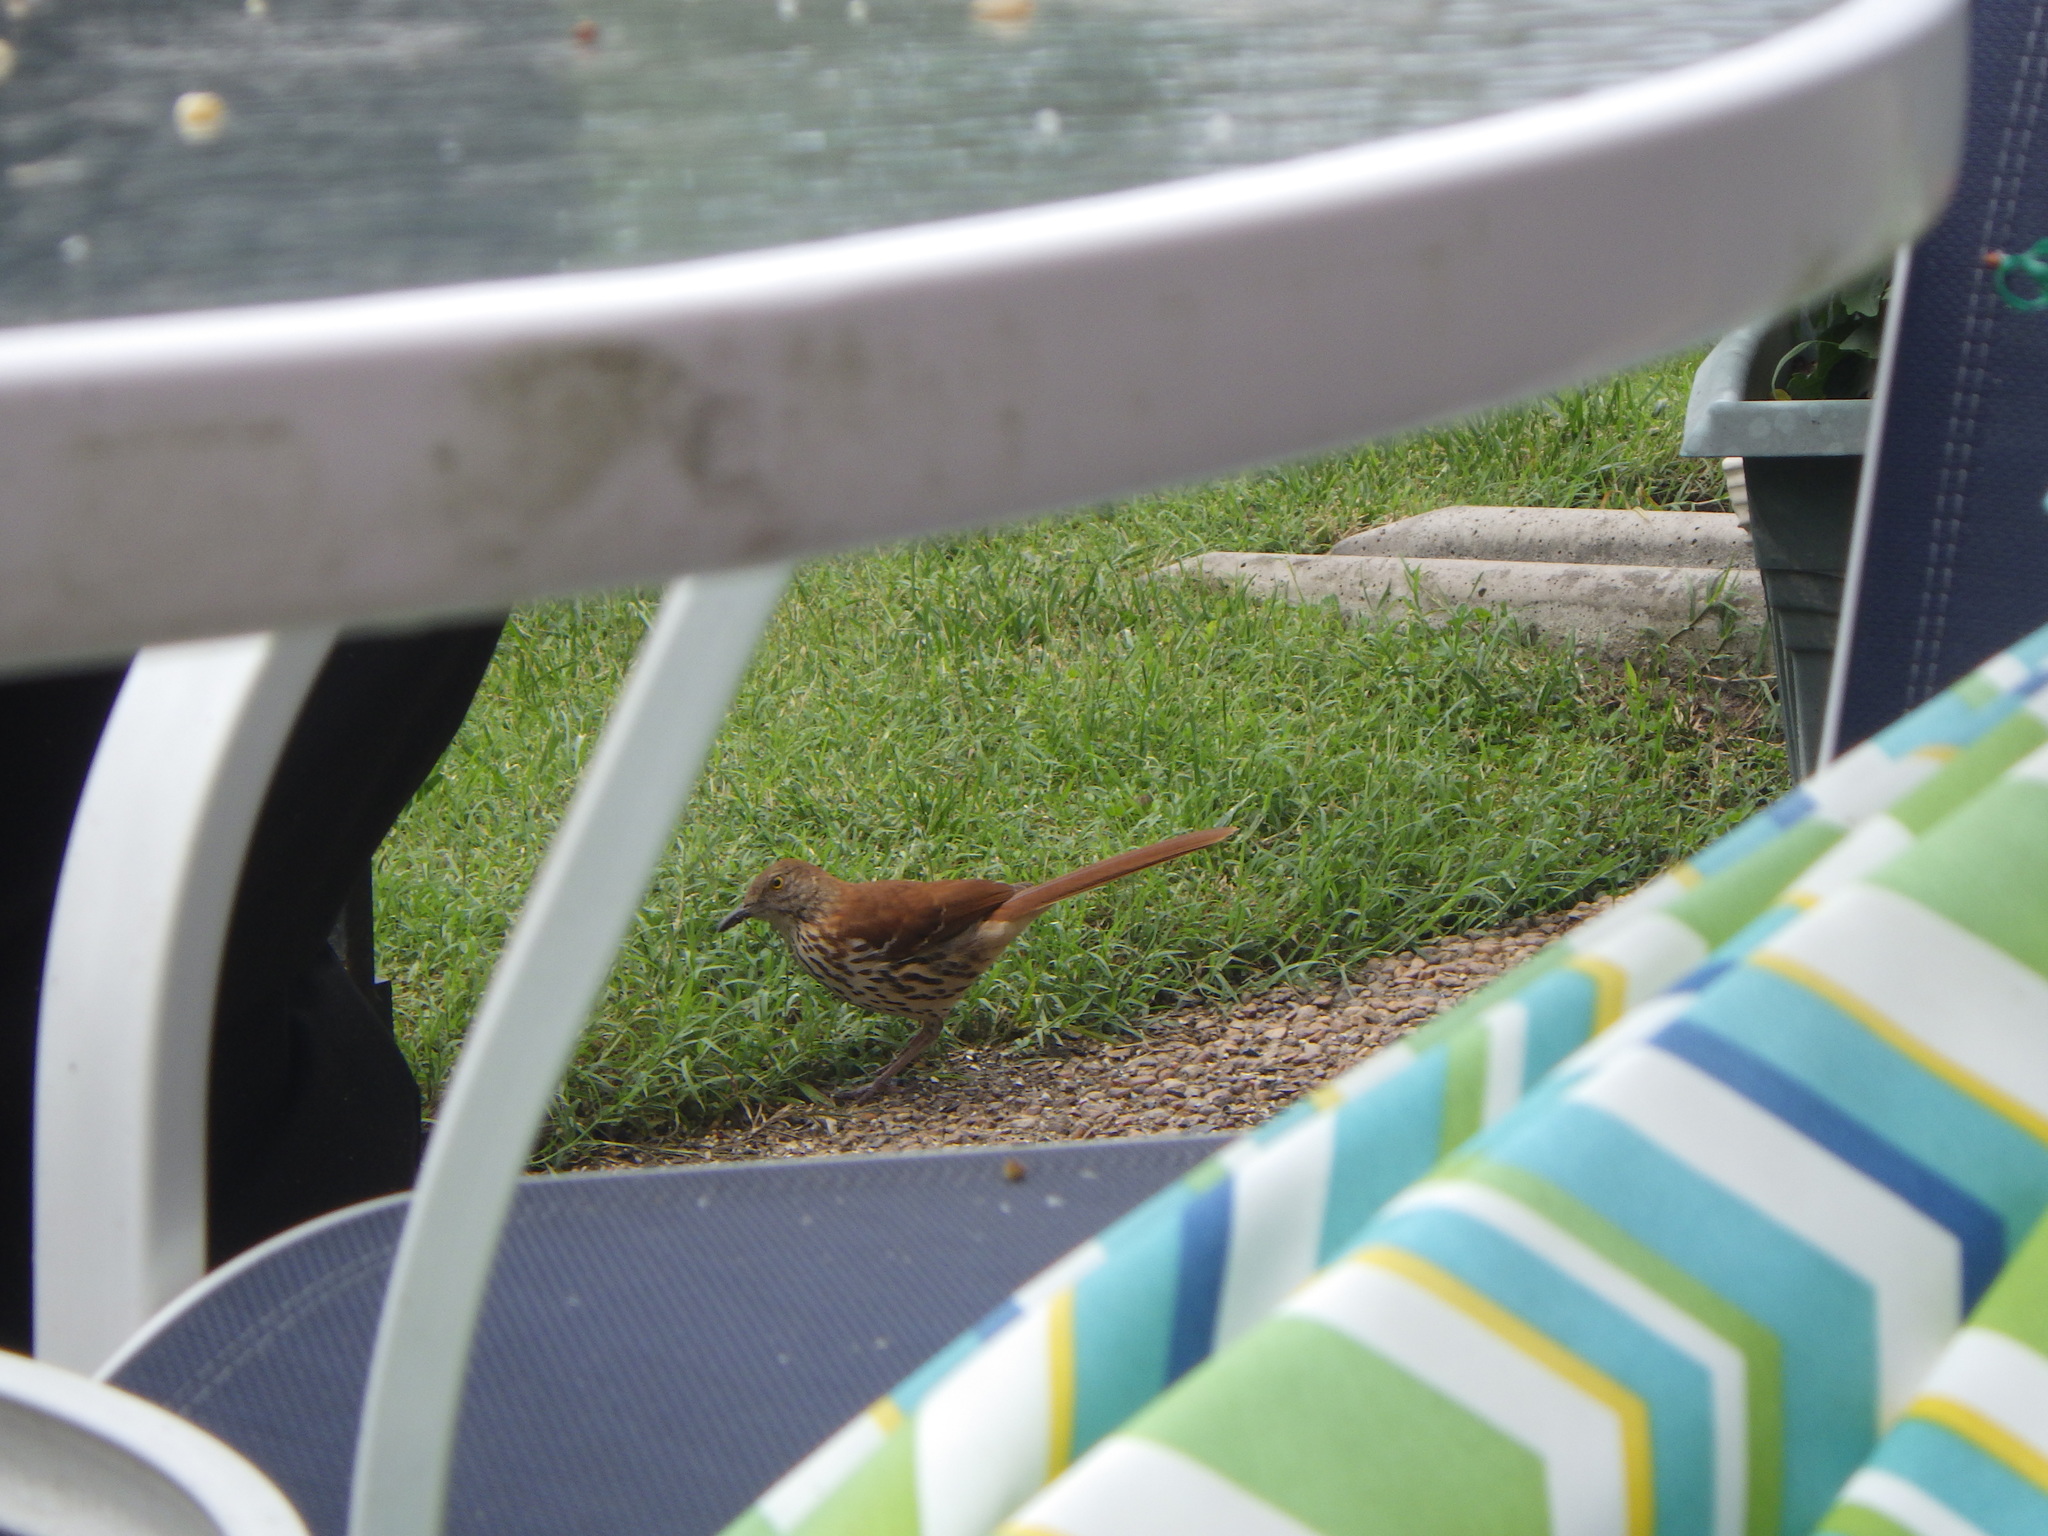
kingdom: Animalia
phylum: Chordata
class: Aves
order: Passeriformes
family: Mimidae
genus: Toxostoma
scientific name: Toxostoma rufum
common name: Brown thrasher
